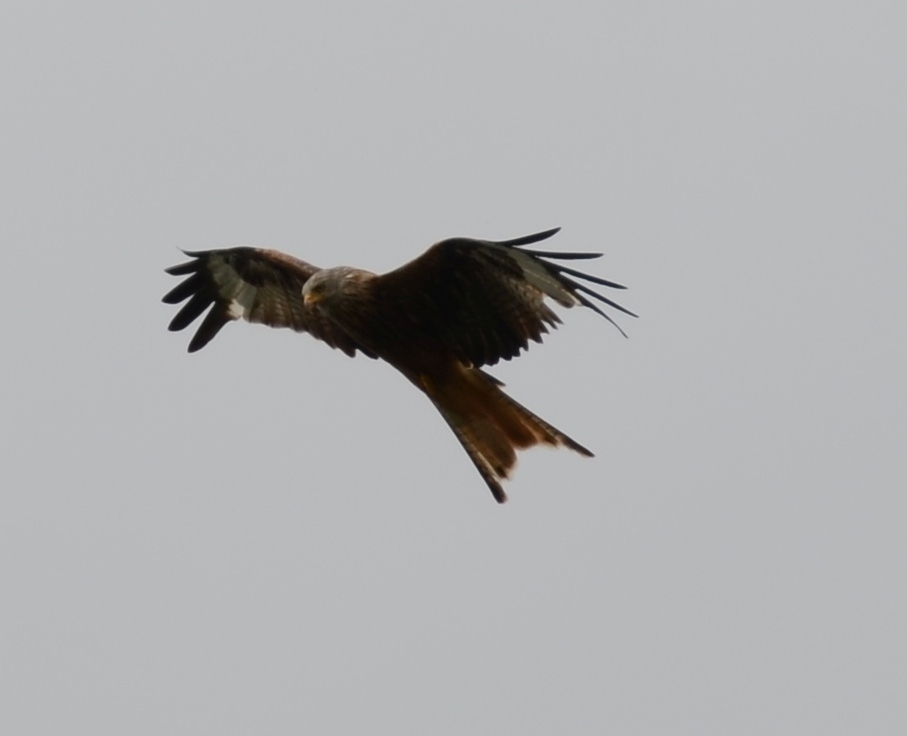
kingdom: Animalia
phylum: Chordata
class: Aves
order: Accipitriformes
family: Accipitridae
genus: Milvus
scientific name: Milvus milvus
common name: Red kite
